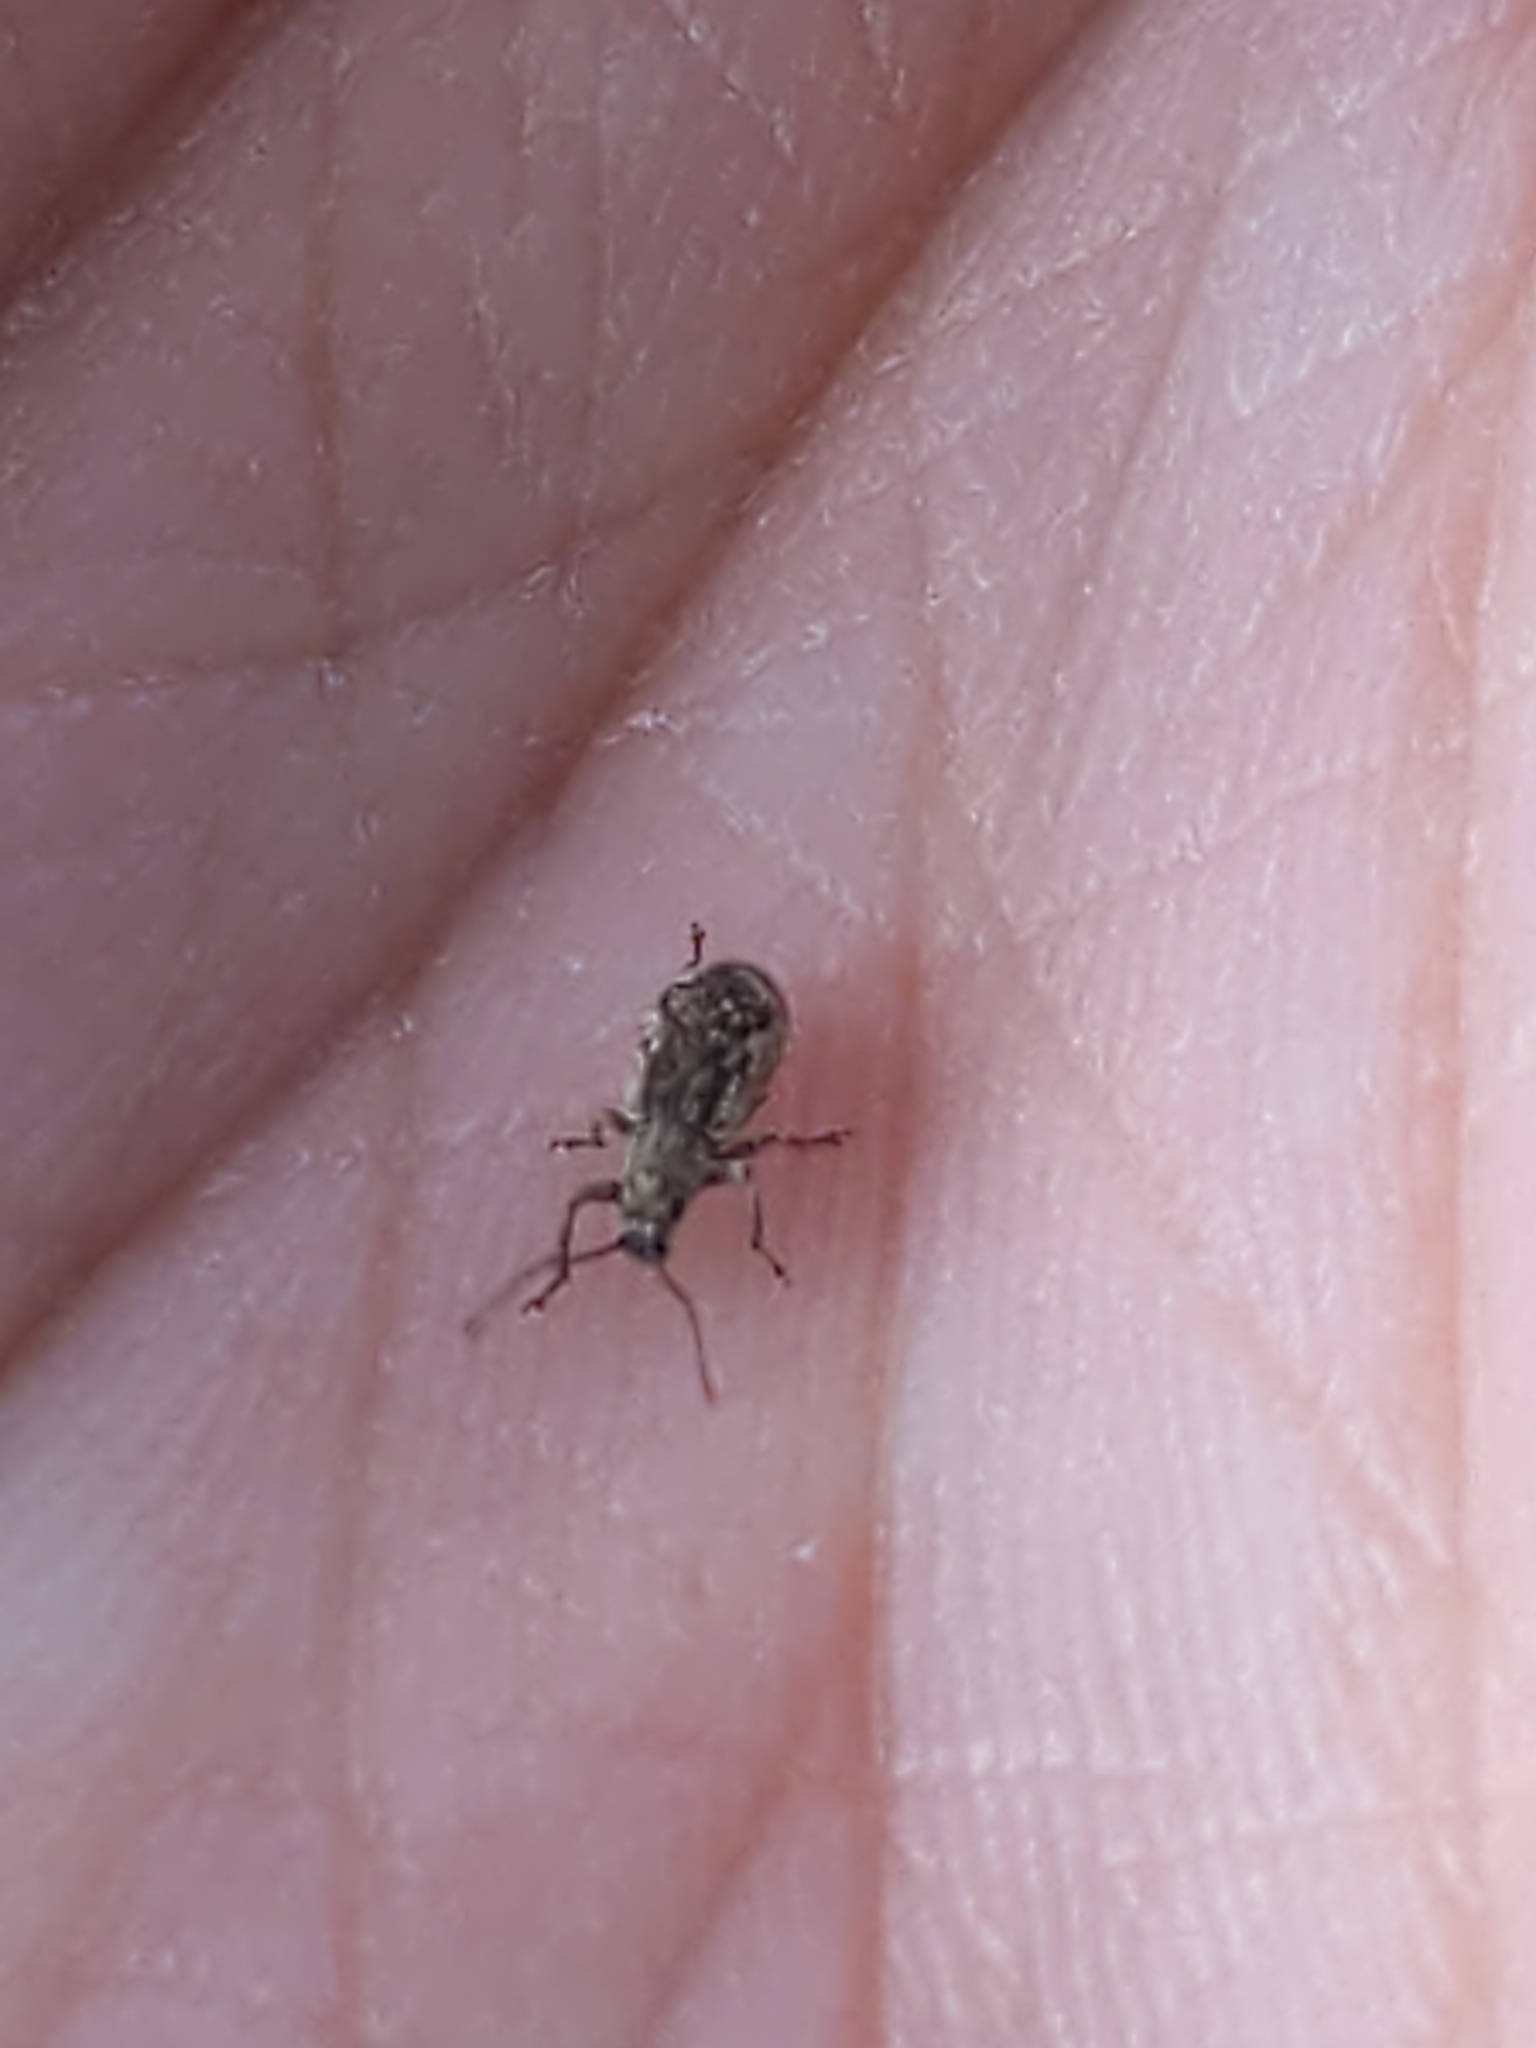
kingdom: Animalia
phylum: Arthropoda
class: Insecta
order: Coleoptera
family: Curculionidae
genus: Pseudoedophrys
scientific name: Pseudoedophrys hilleri
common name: Weevil
